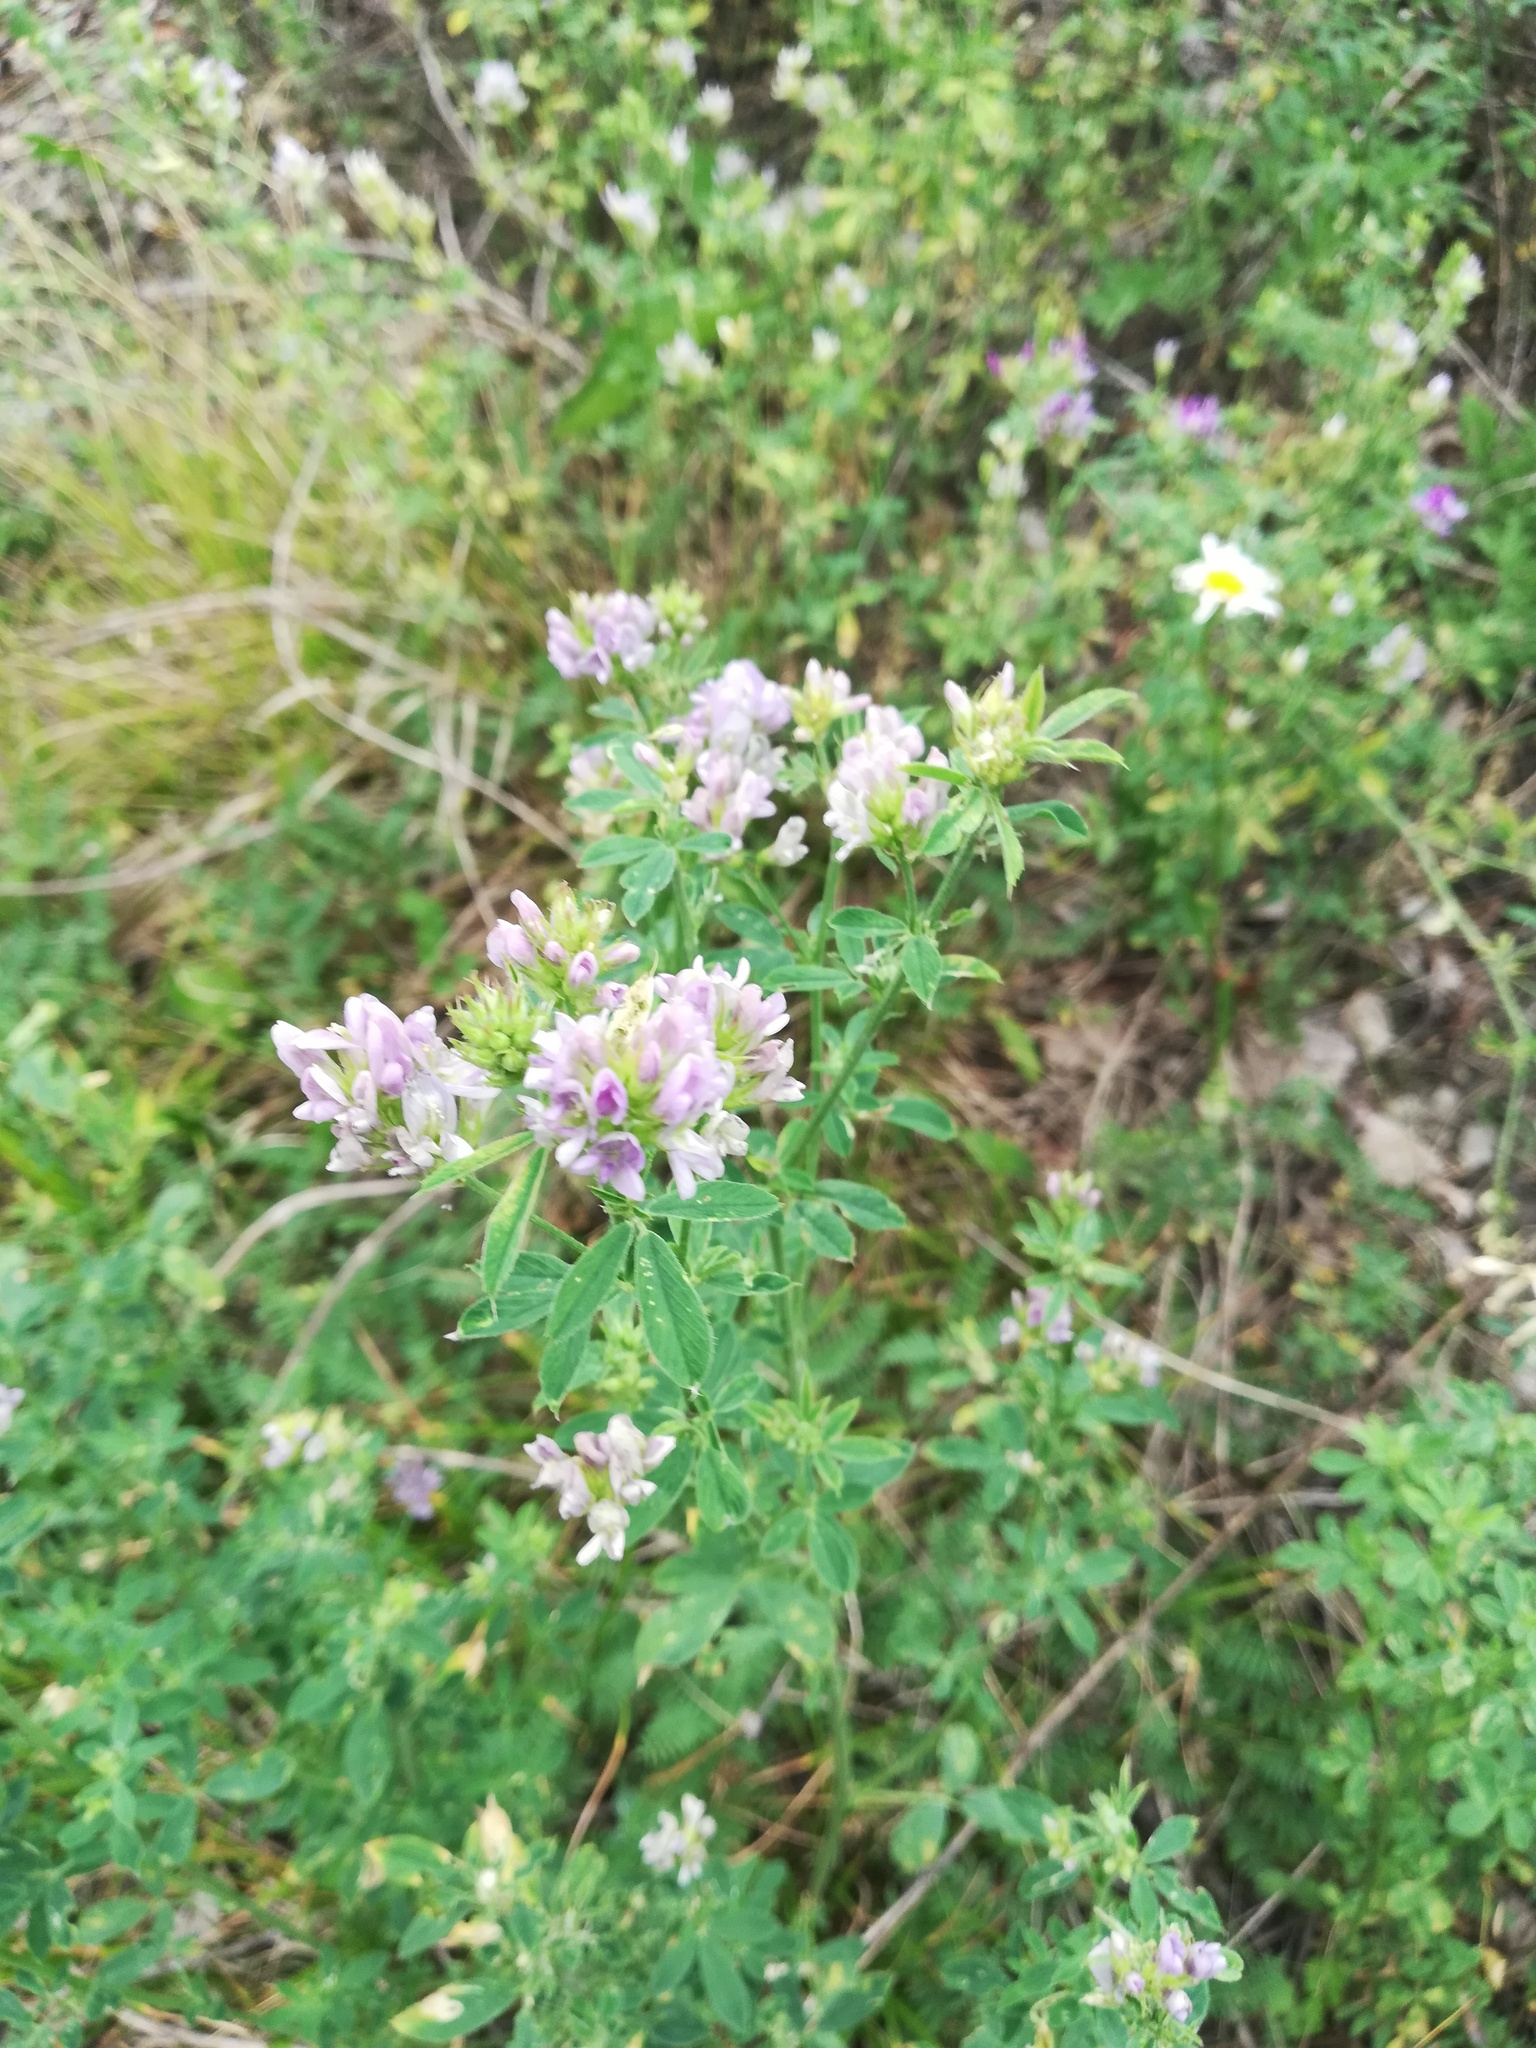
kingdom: Plantae
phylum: Tracheophyta
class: Magnoliopsida
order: Fabales
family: Fabaceae
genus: Medicago
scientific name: Medicago varia
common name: Sand lucerne
